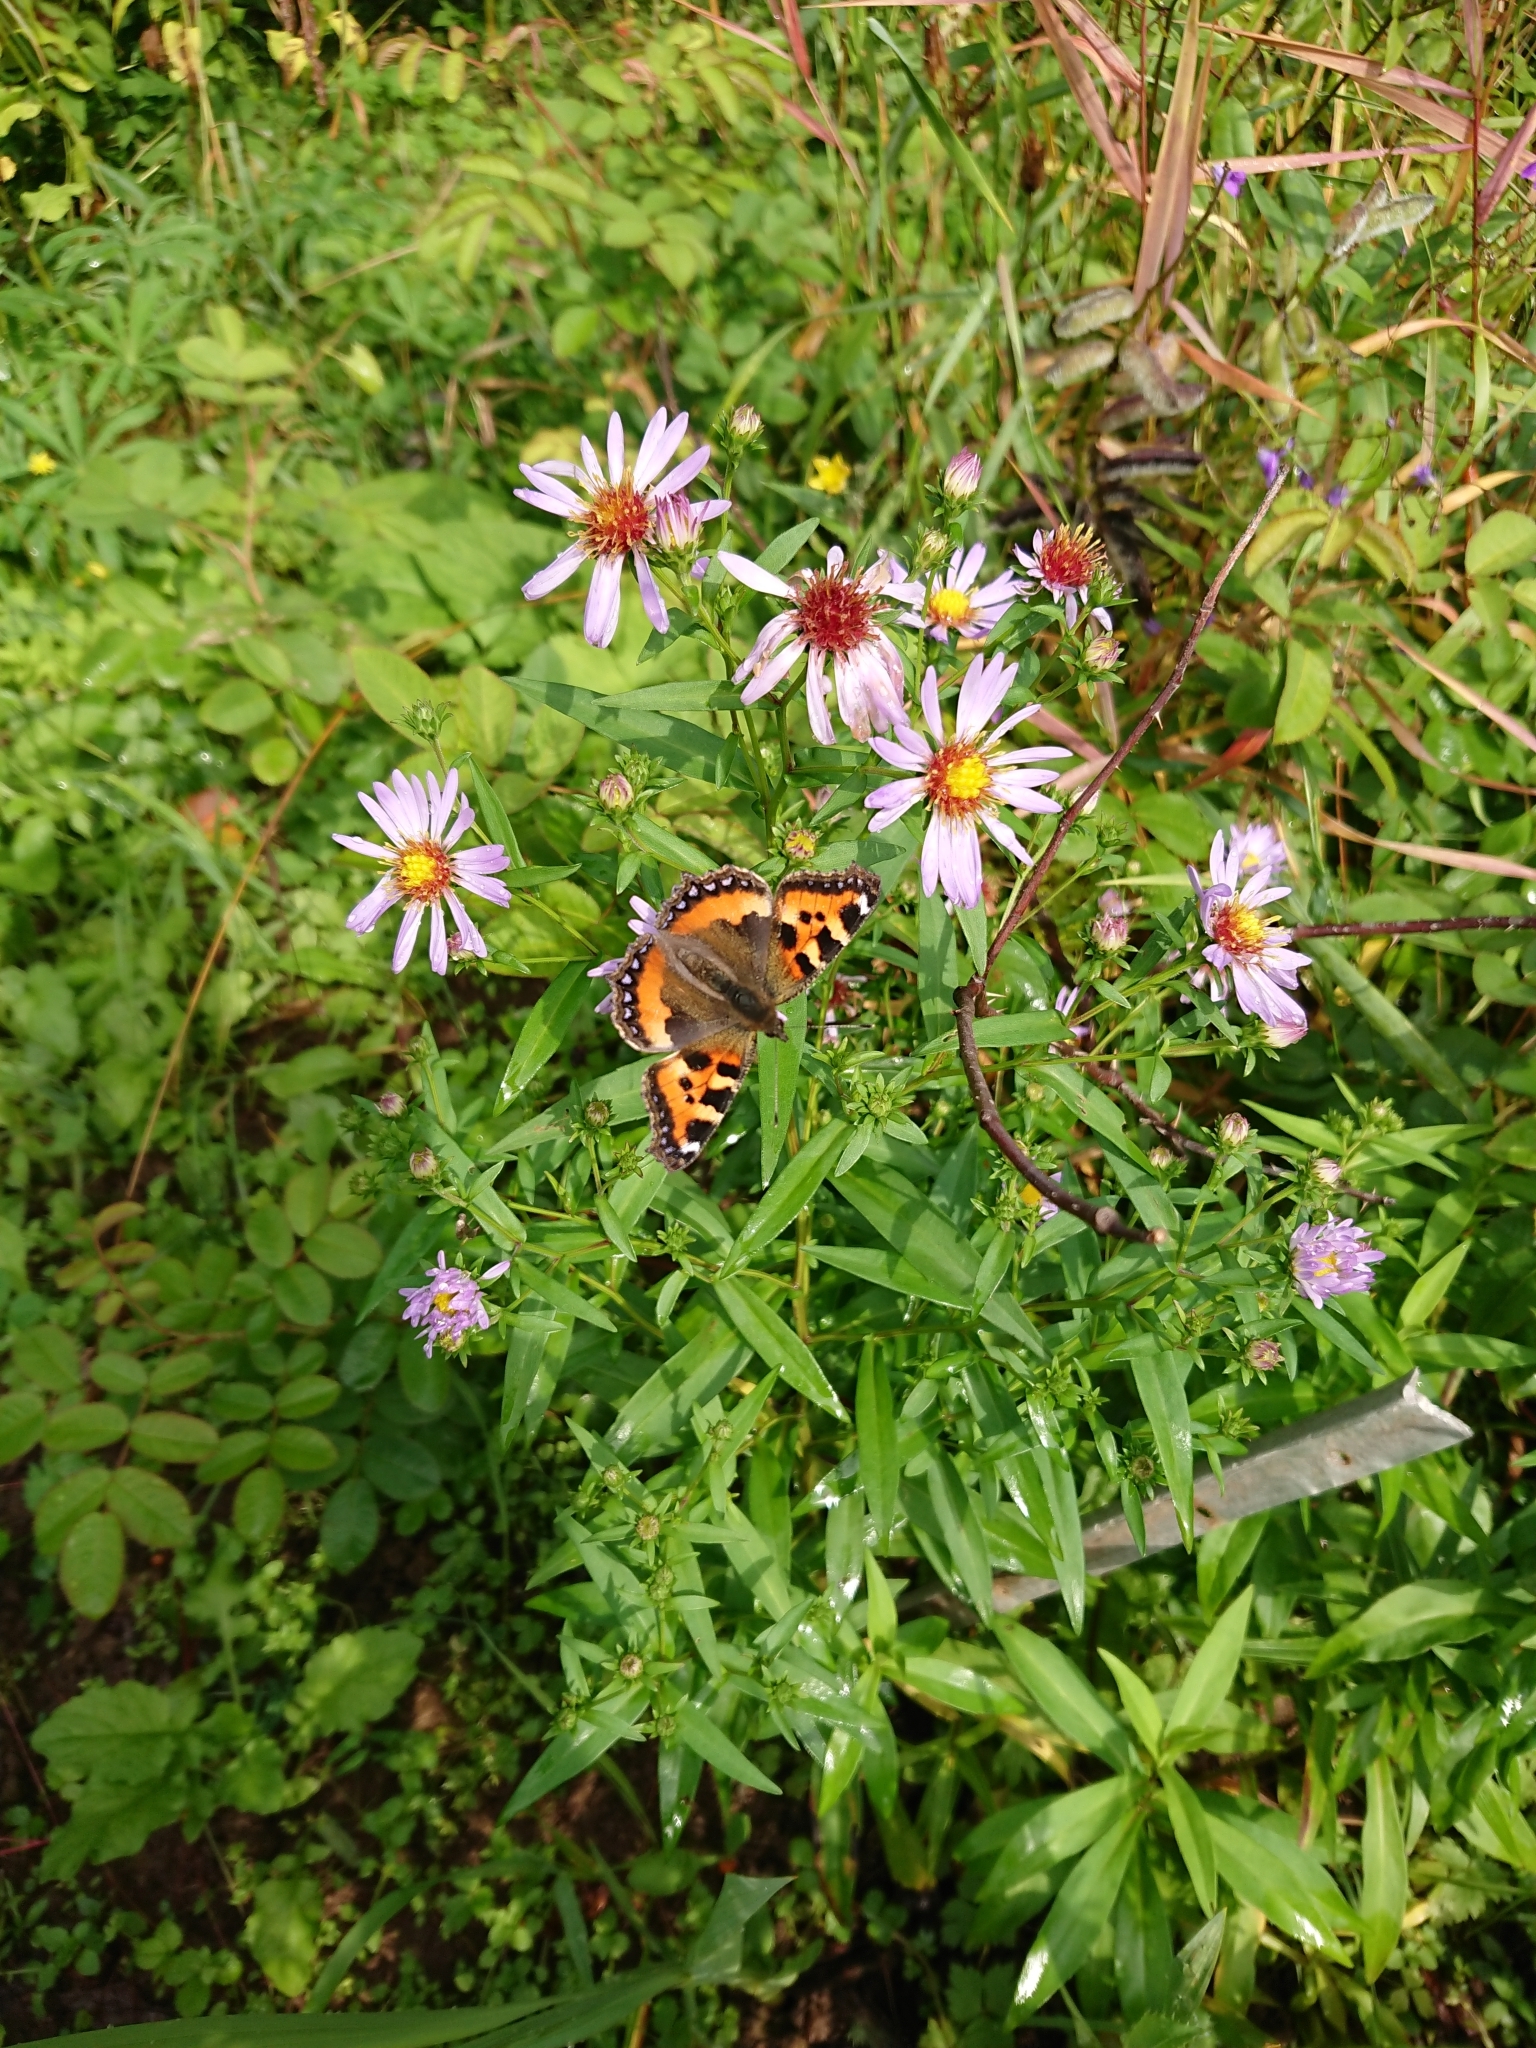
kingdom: Animalia
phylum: Arthropoda
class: Insecta
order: Lepidoptera
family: Nymphalidae
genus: Aglais
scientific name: Aglais urticae
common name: Small tortoiseshell
